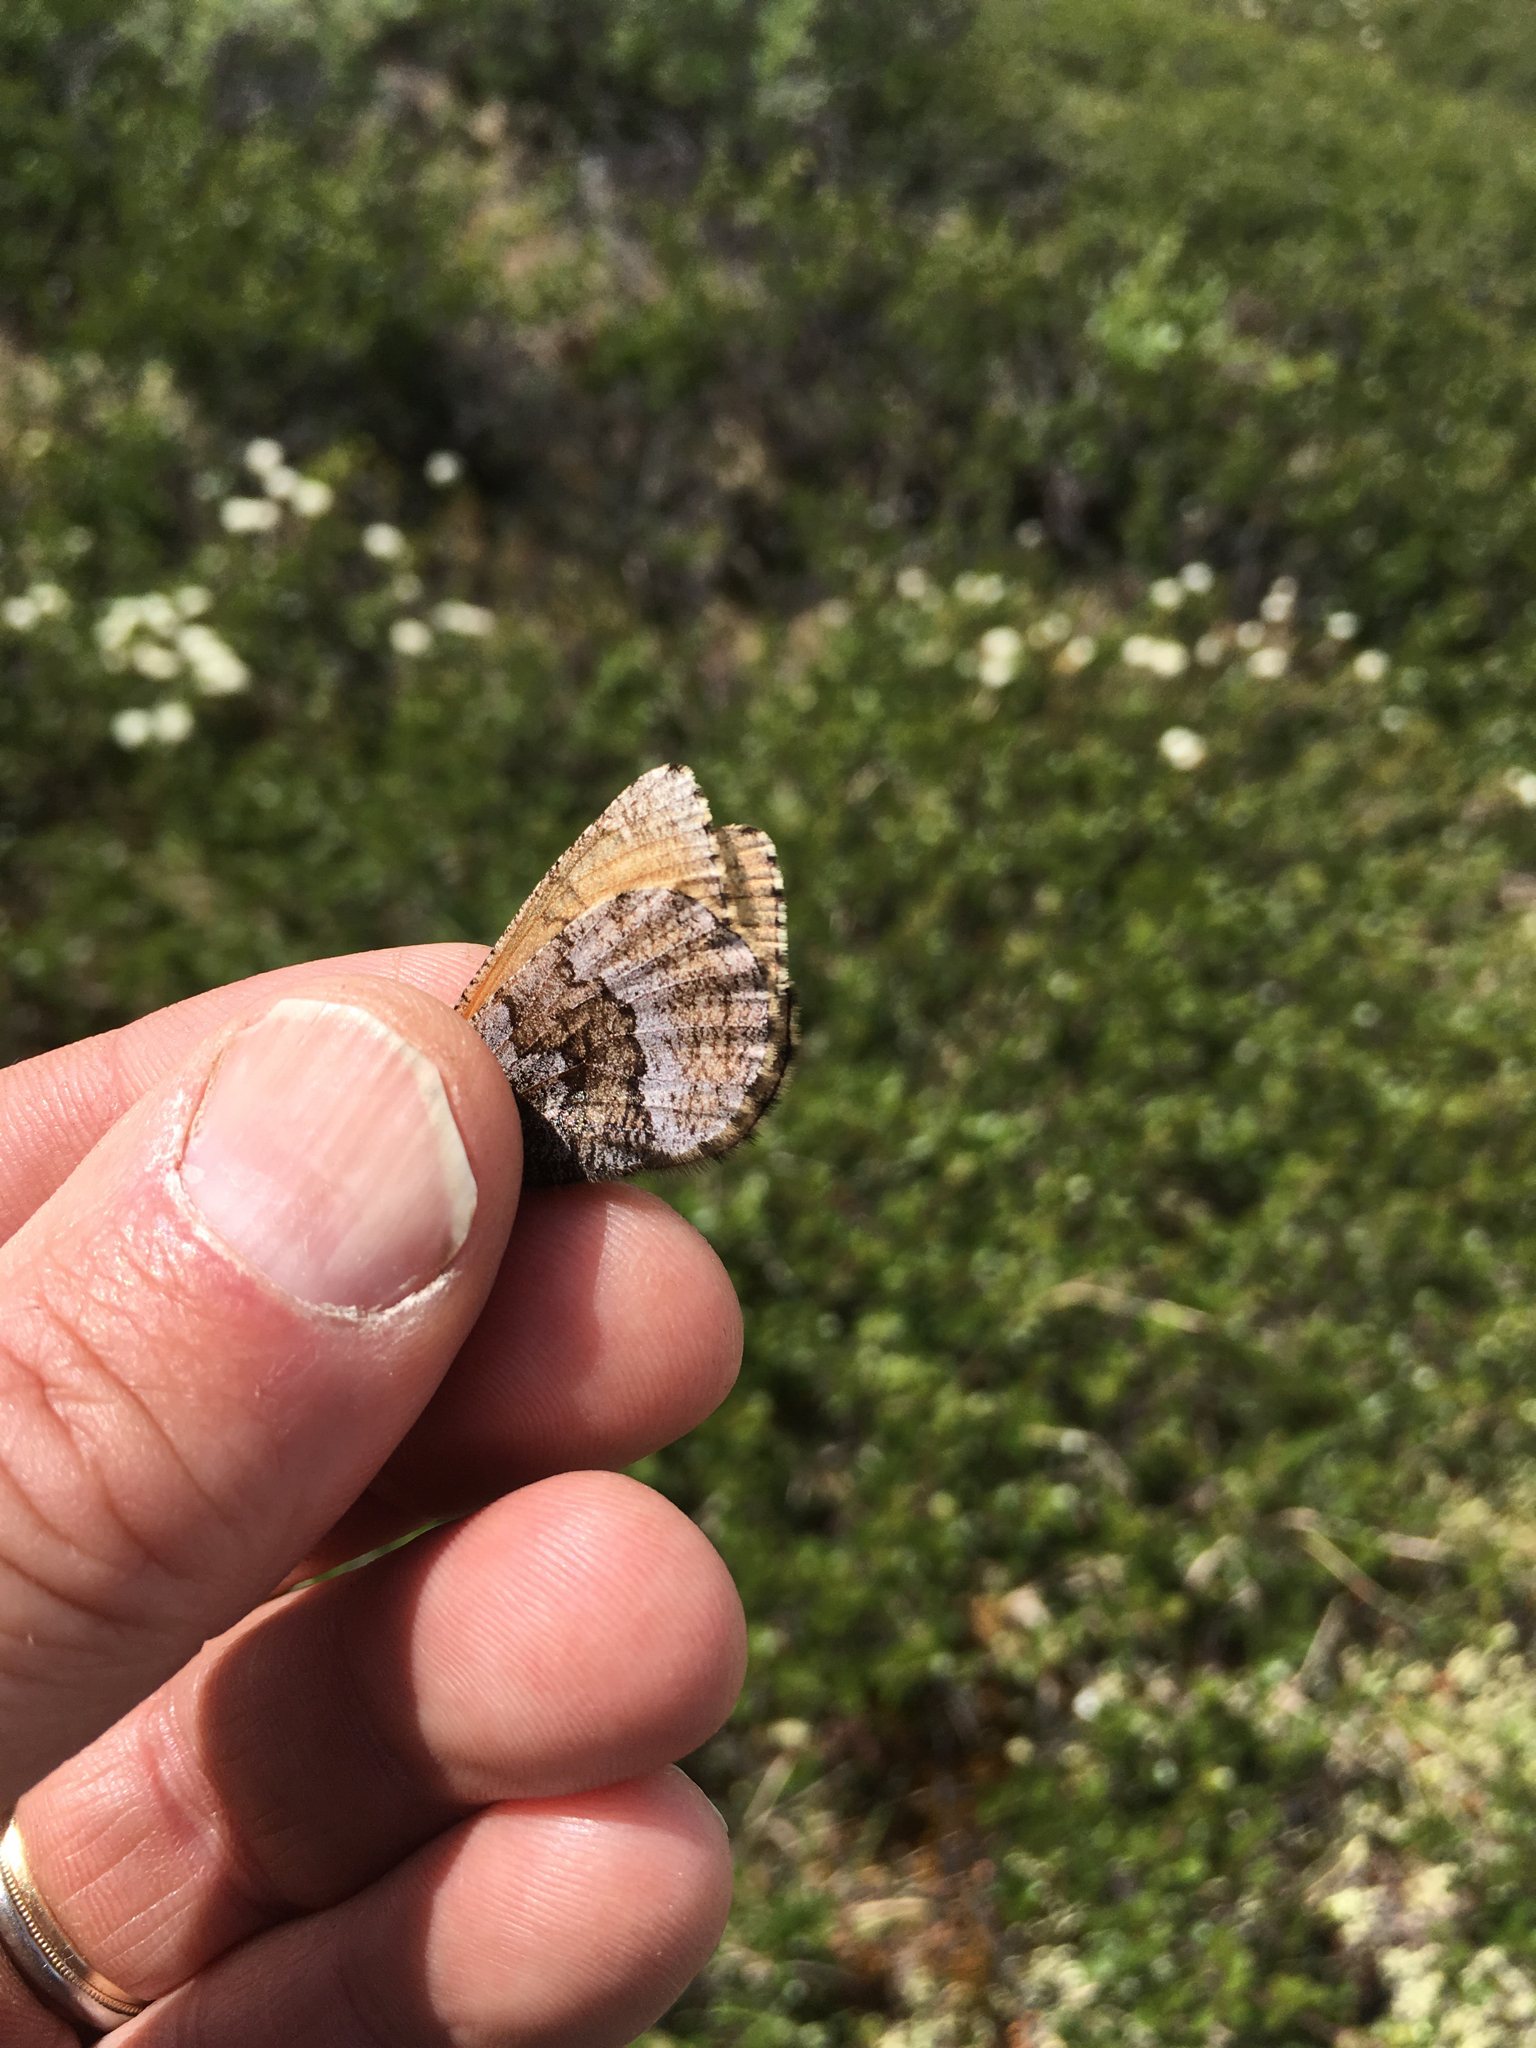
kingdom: Animalia
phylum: Arthropoda
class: Insecta
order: Lepidoptera
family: Nymphalidae
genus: Oeneis
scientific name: Oeneis bore
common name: Arctic grayling
